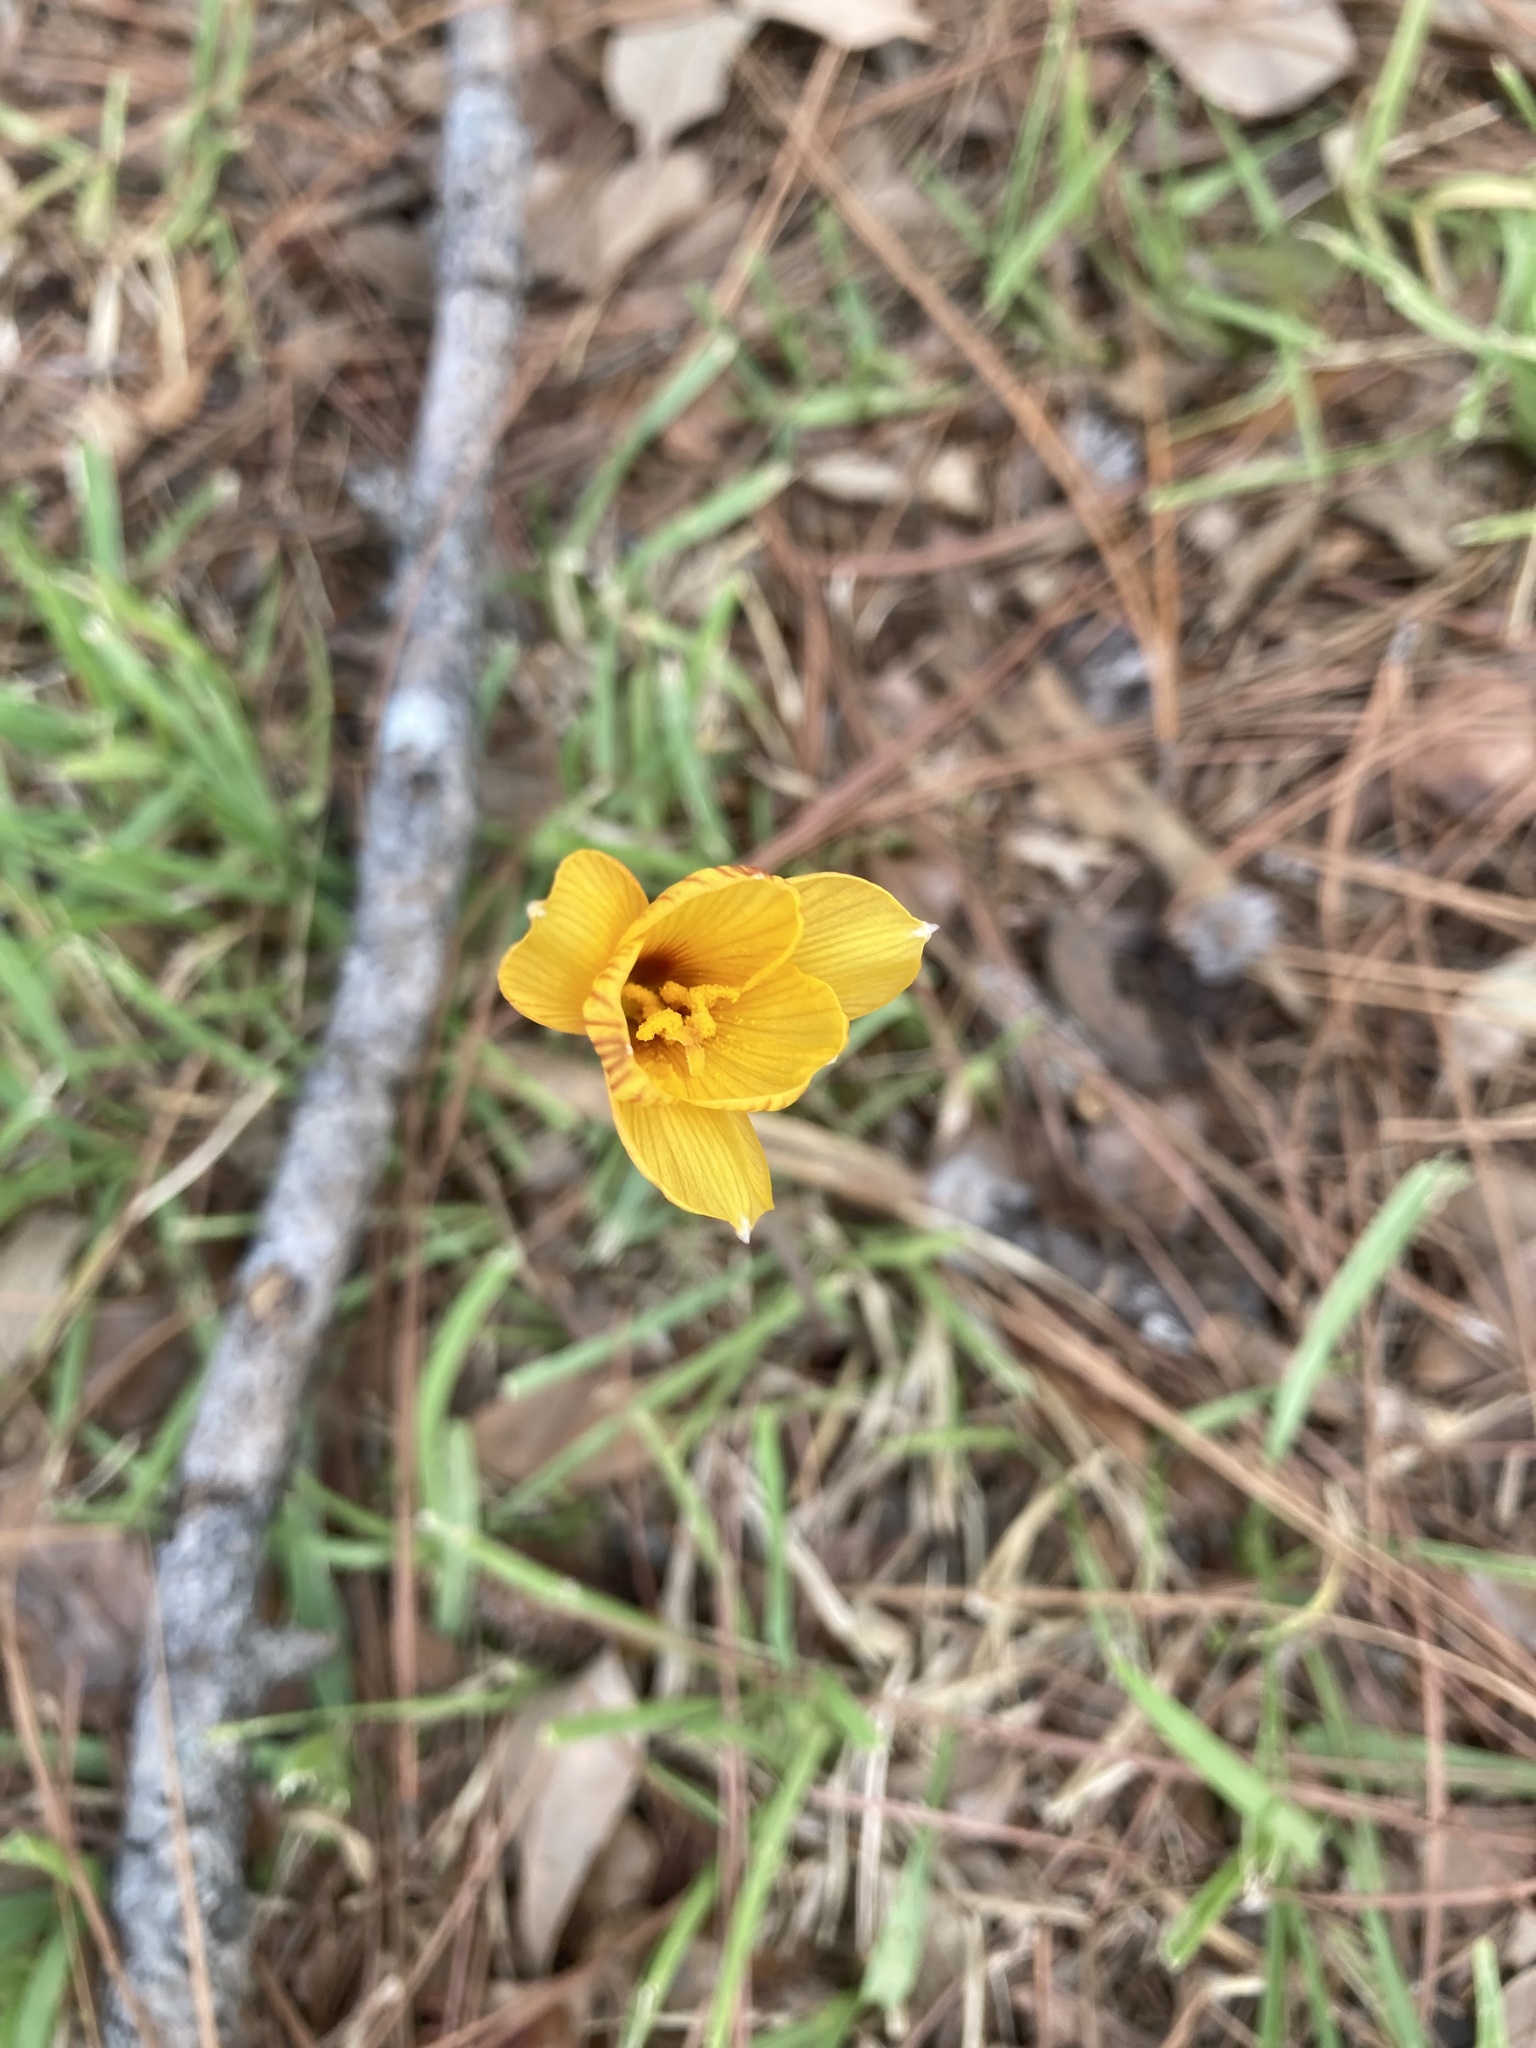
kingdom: Plantae
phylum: Tracheophyta
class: Liliopsida
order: Asparagales
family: Amaryllidaceae
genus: Zephyranthes
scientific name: Zephyranthes tubispatha
